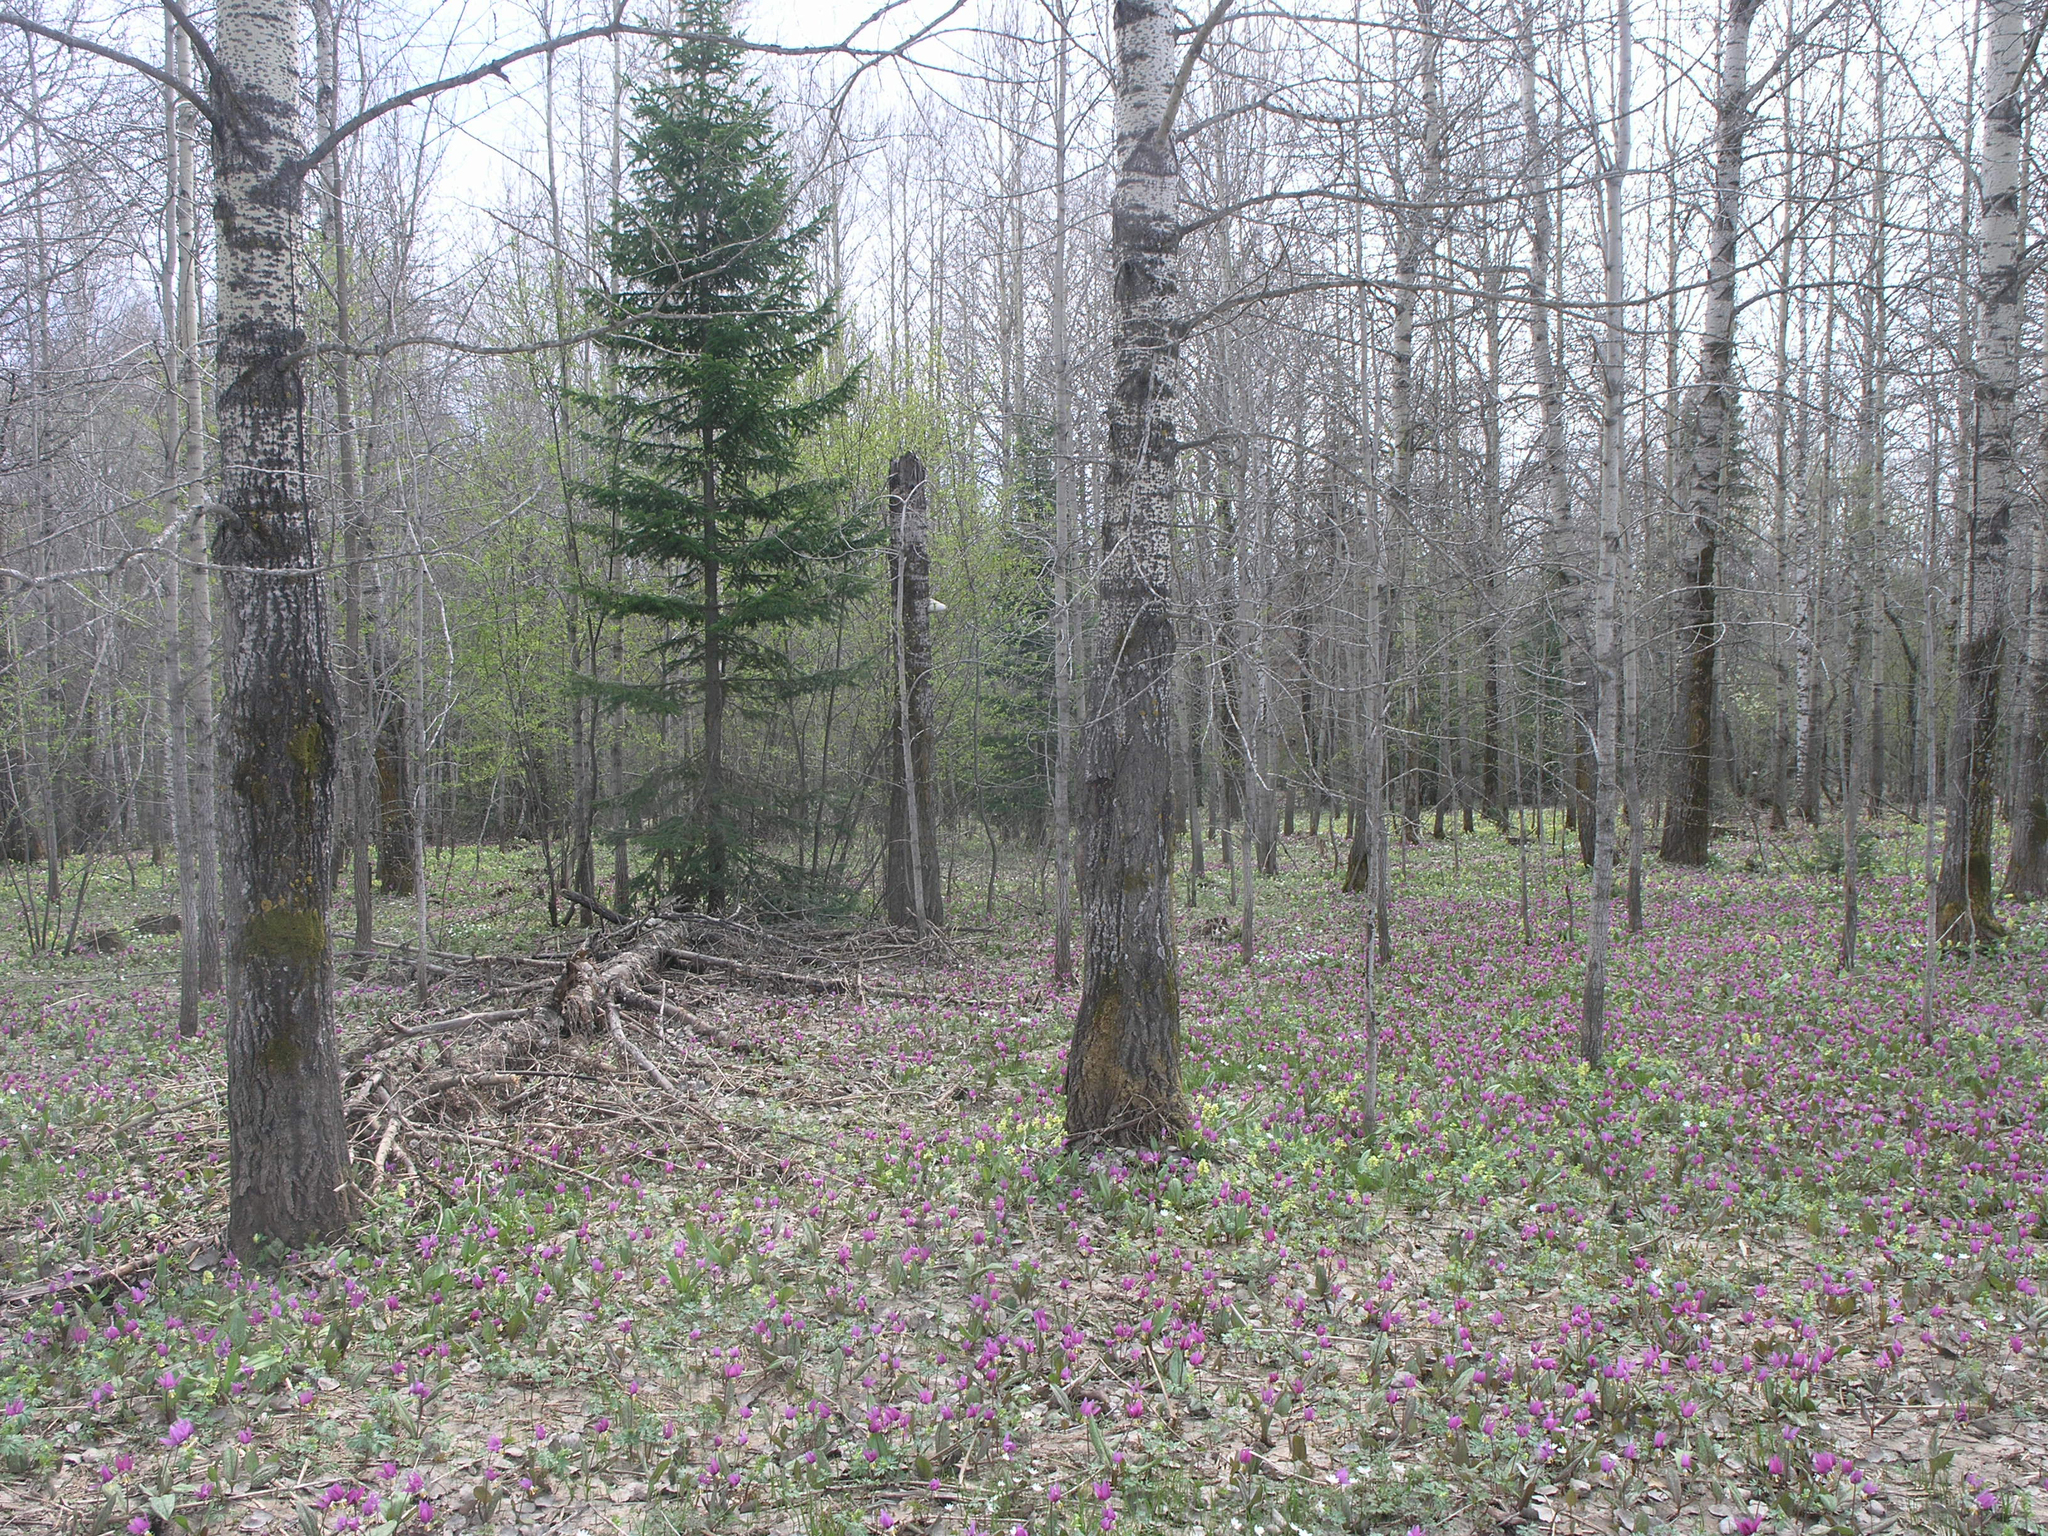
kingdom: Plantae
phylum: Tracheophyta
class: Liliopsida
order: Liliales
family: Liliaceae
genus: Erythronium
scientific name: Erythronium sibiricum
